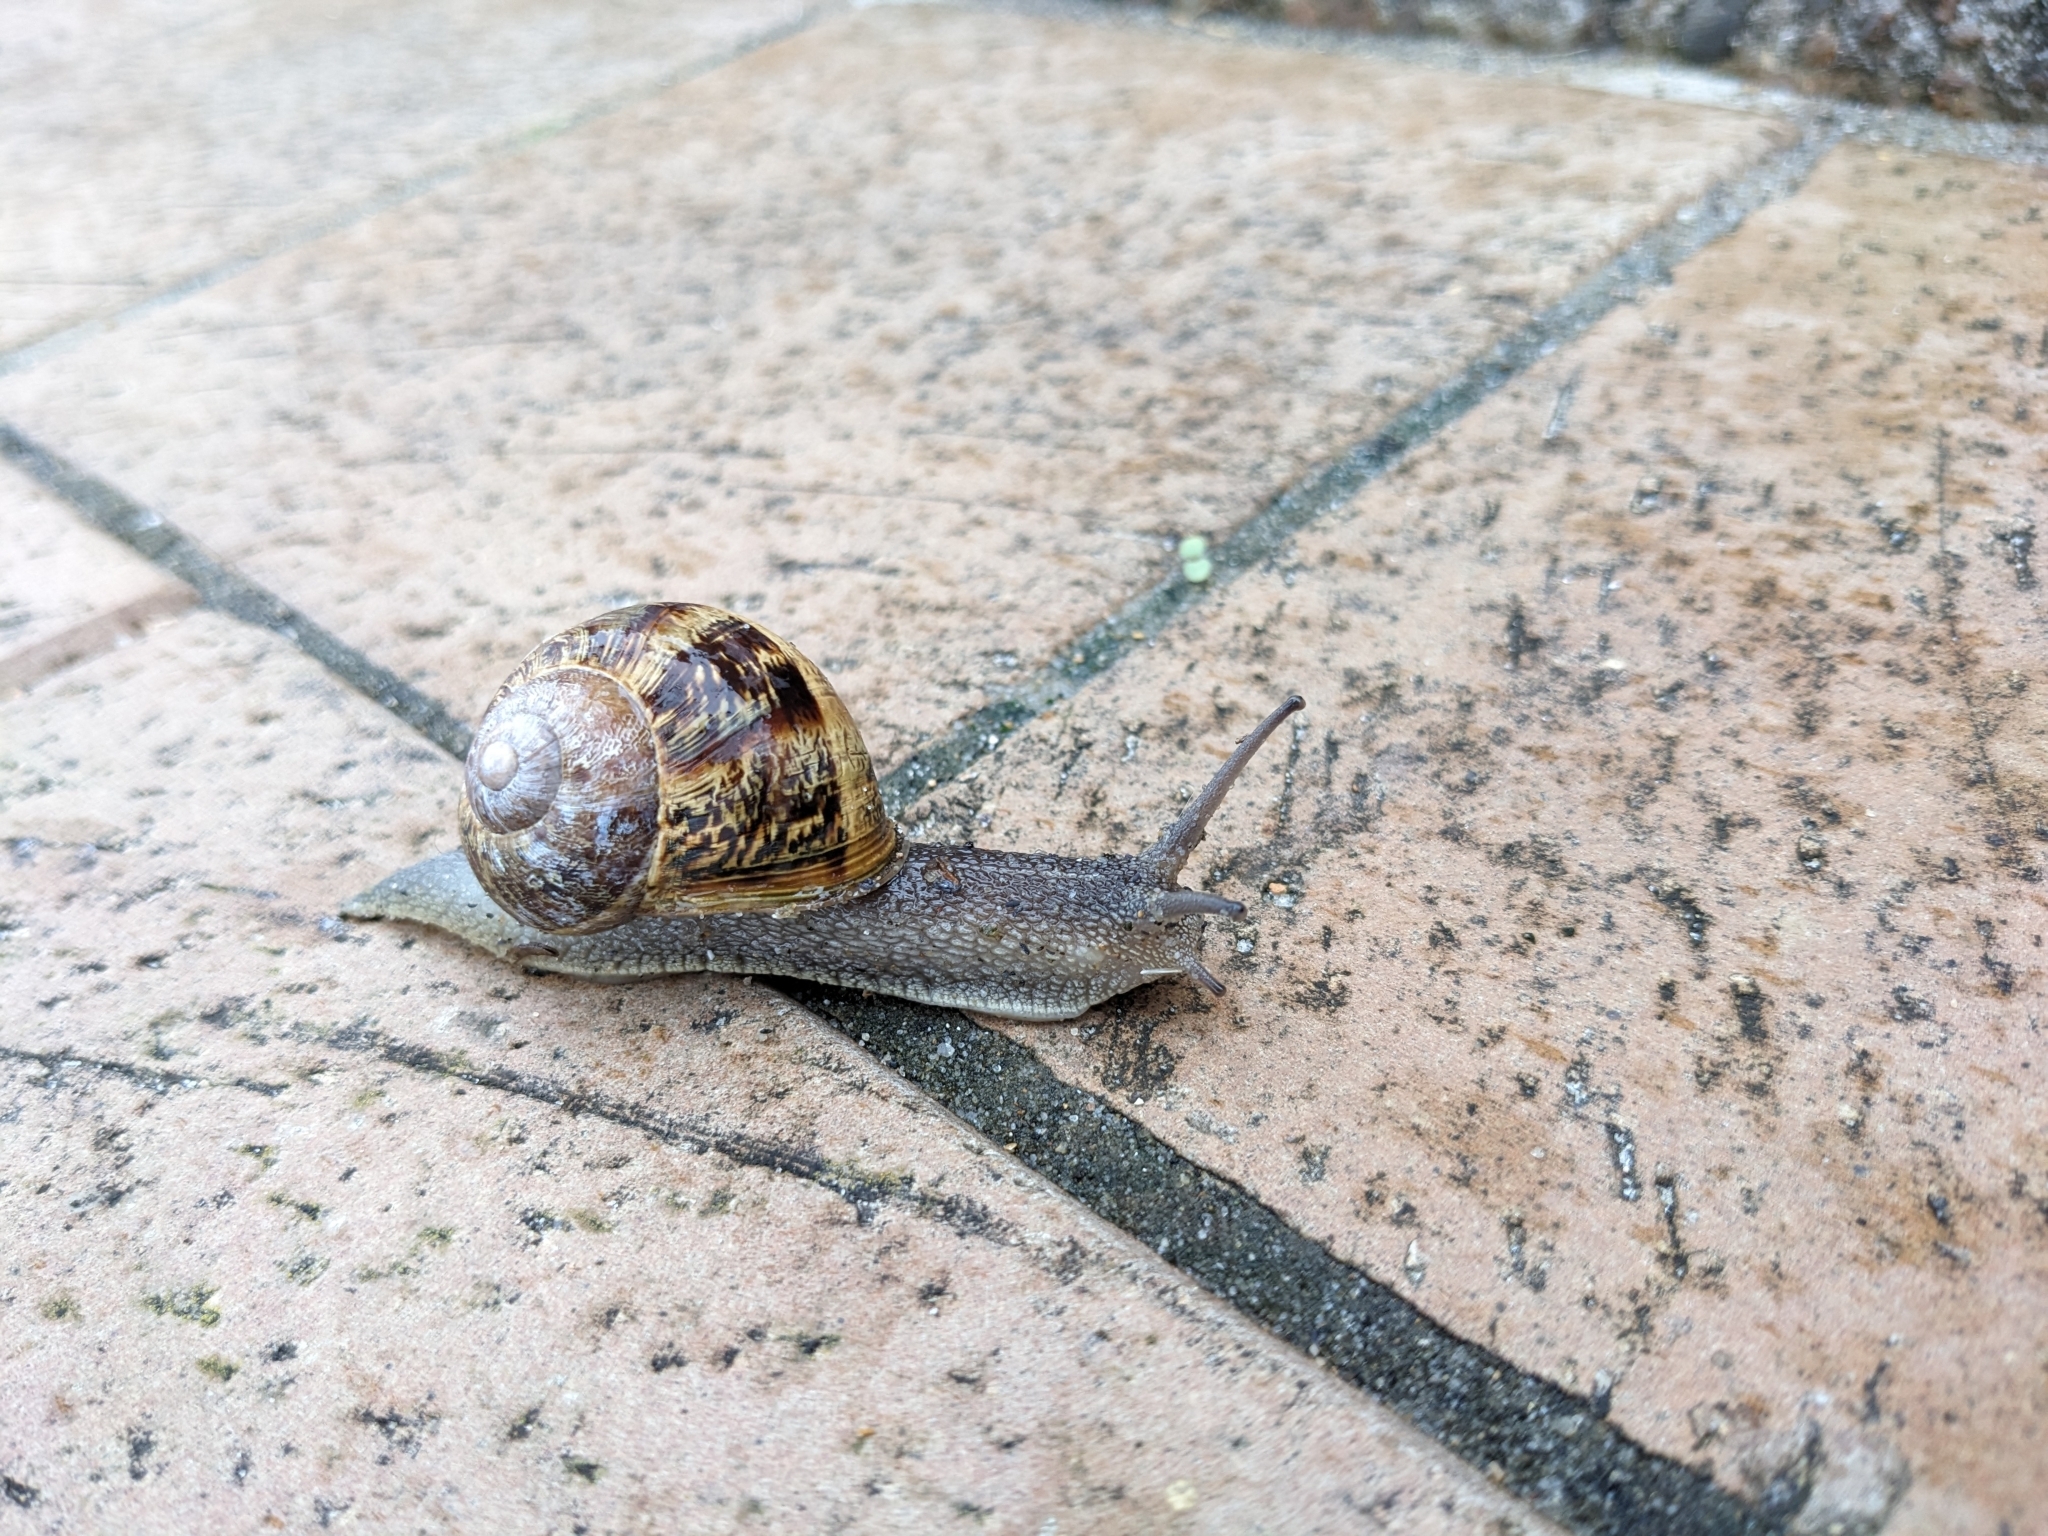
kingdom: Animalia
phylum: Mollusca
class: Gastropoda
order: Stylommatophora
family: Helicidae
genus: Cornu
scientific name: Cornu aspersum
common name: Brown garden snail
